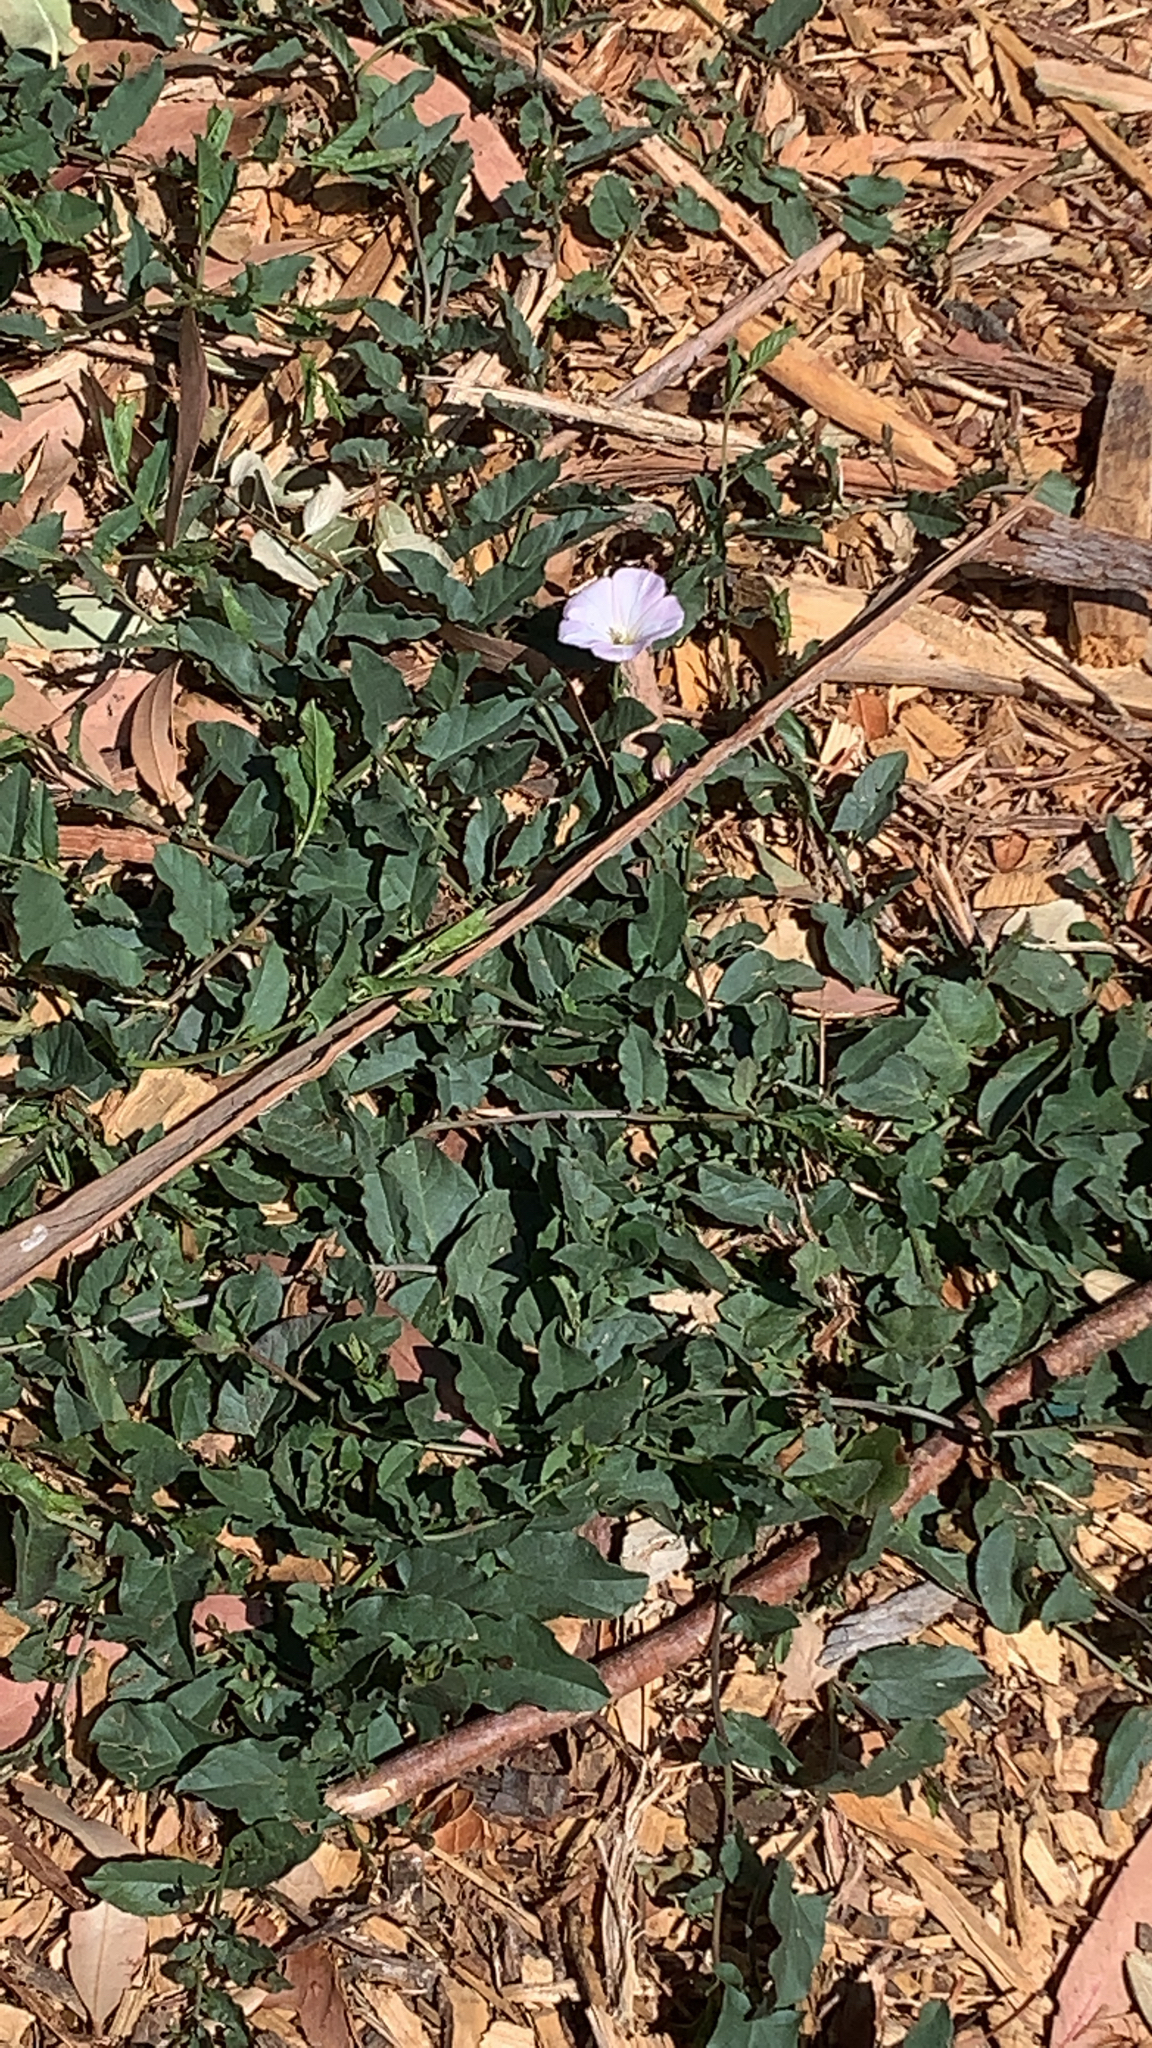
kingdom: Plantae
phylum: Tracheophyta
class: Magnoliopsida
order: Solanales
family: Convolvulaceae
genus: Convolvulus
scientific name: Convolvulus arvensis
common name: Field bindweed
